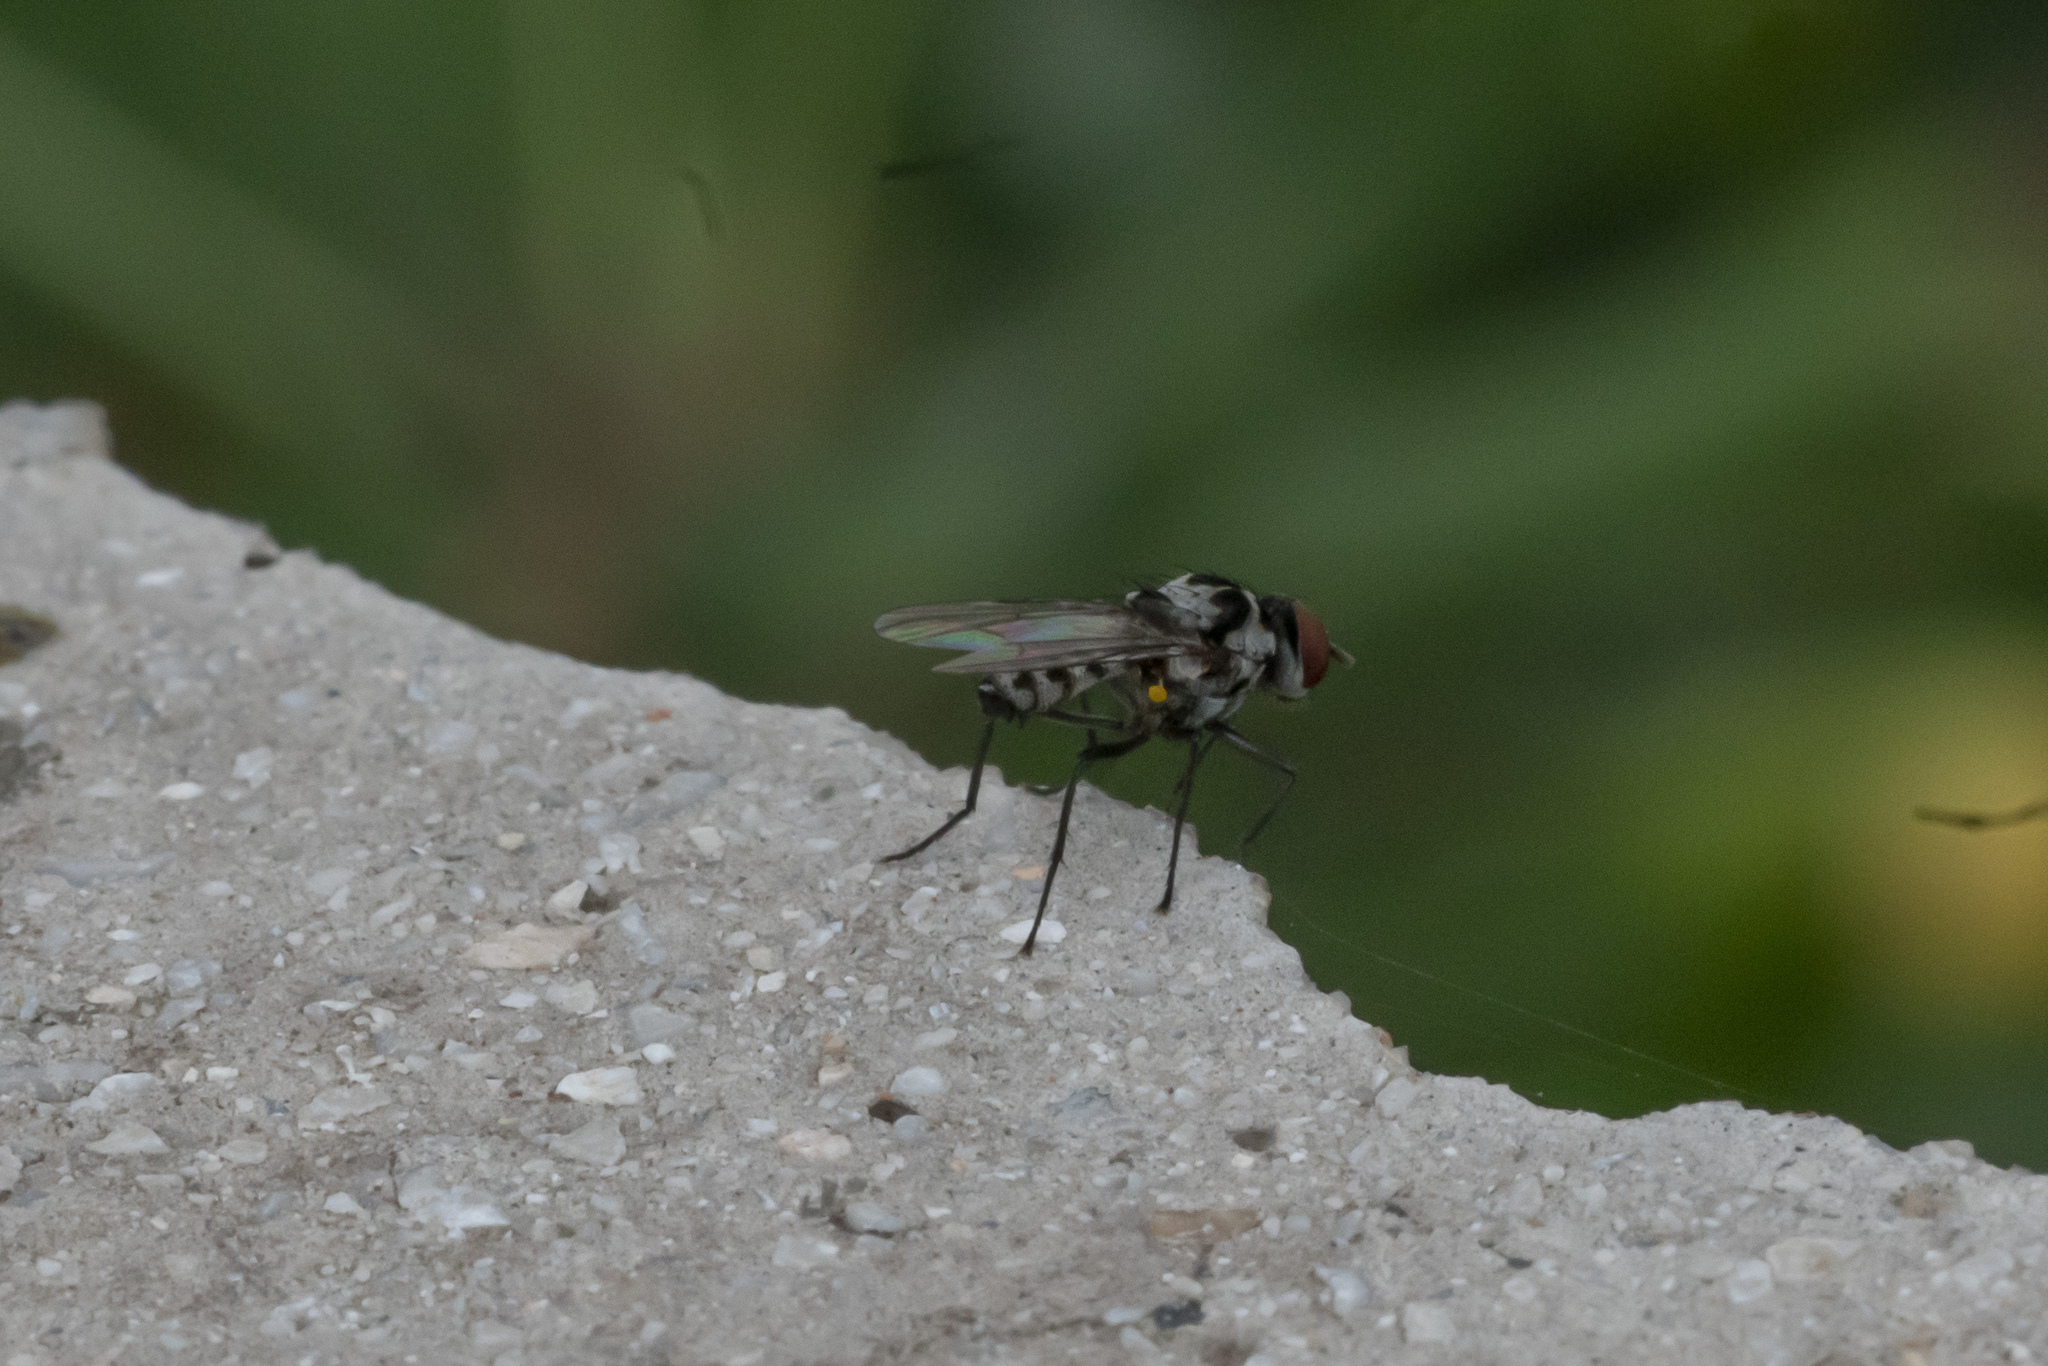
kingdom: Animalia
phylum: Arthropoda
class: Insecta
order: Diptera
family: Anthomyiidae
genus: Anthomyia
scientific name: Anthomyia pluvialis
